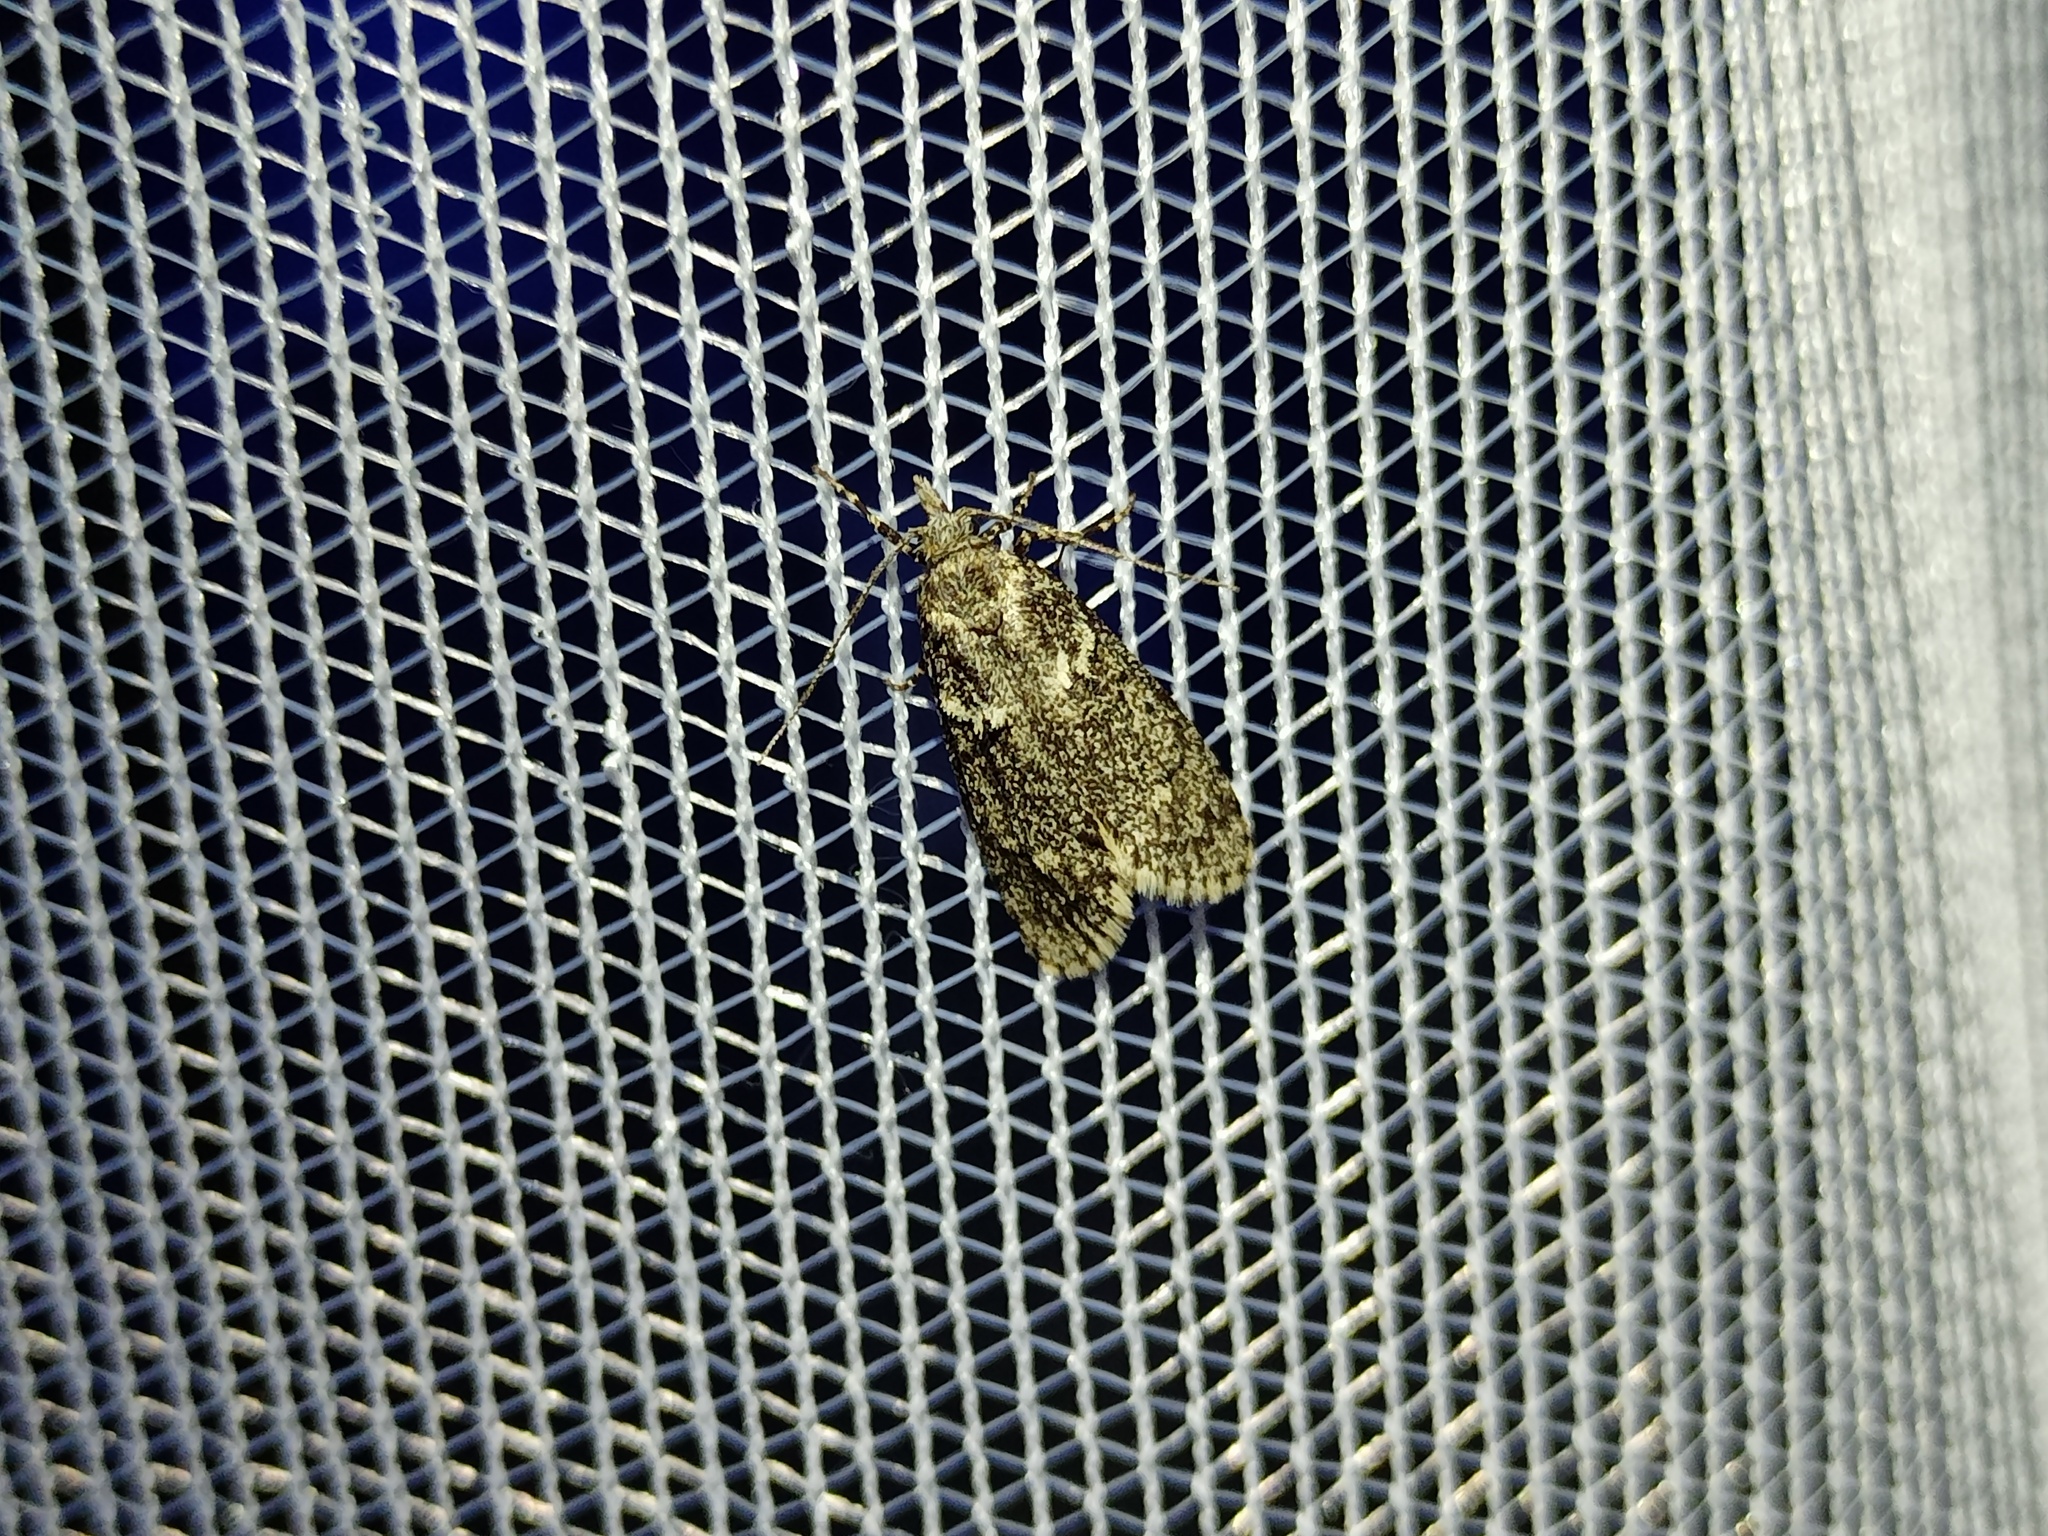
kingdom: Animalia
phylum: Arthropoda
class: Insecta
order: Lepidoptera
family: Lypusidae
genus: Diurnea
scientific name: Diurnea fagella
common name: March tubic
